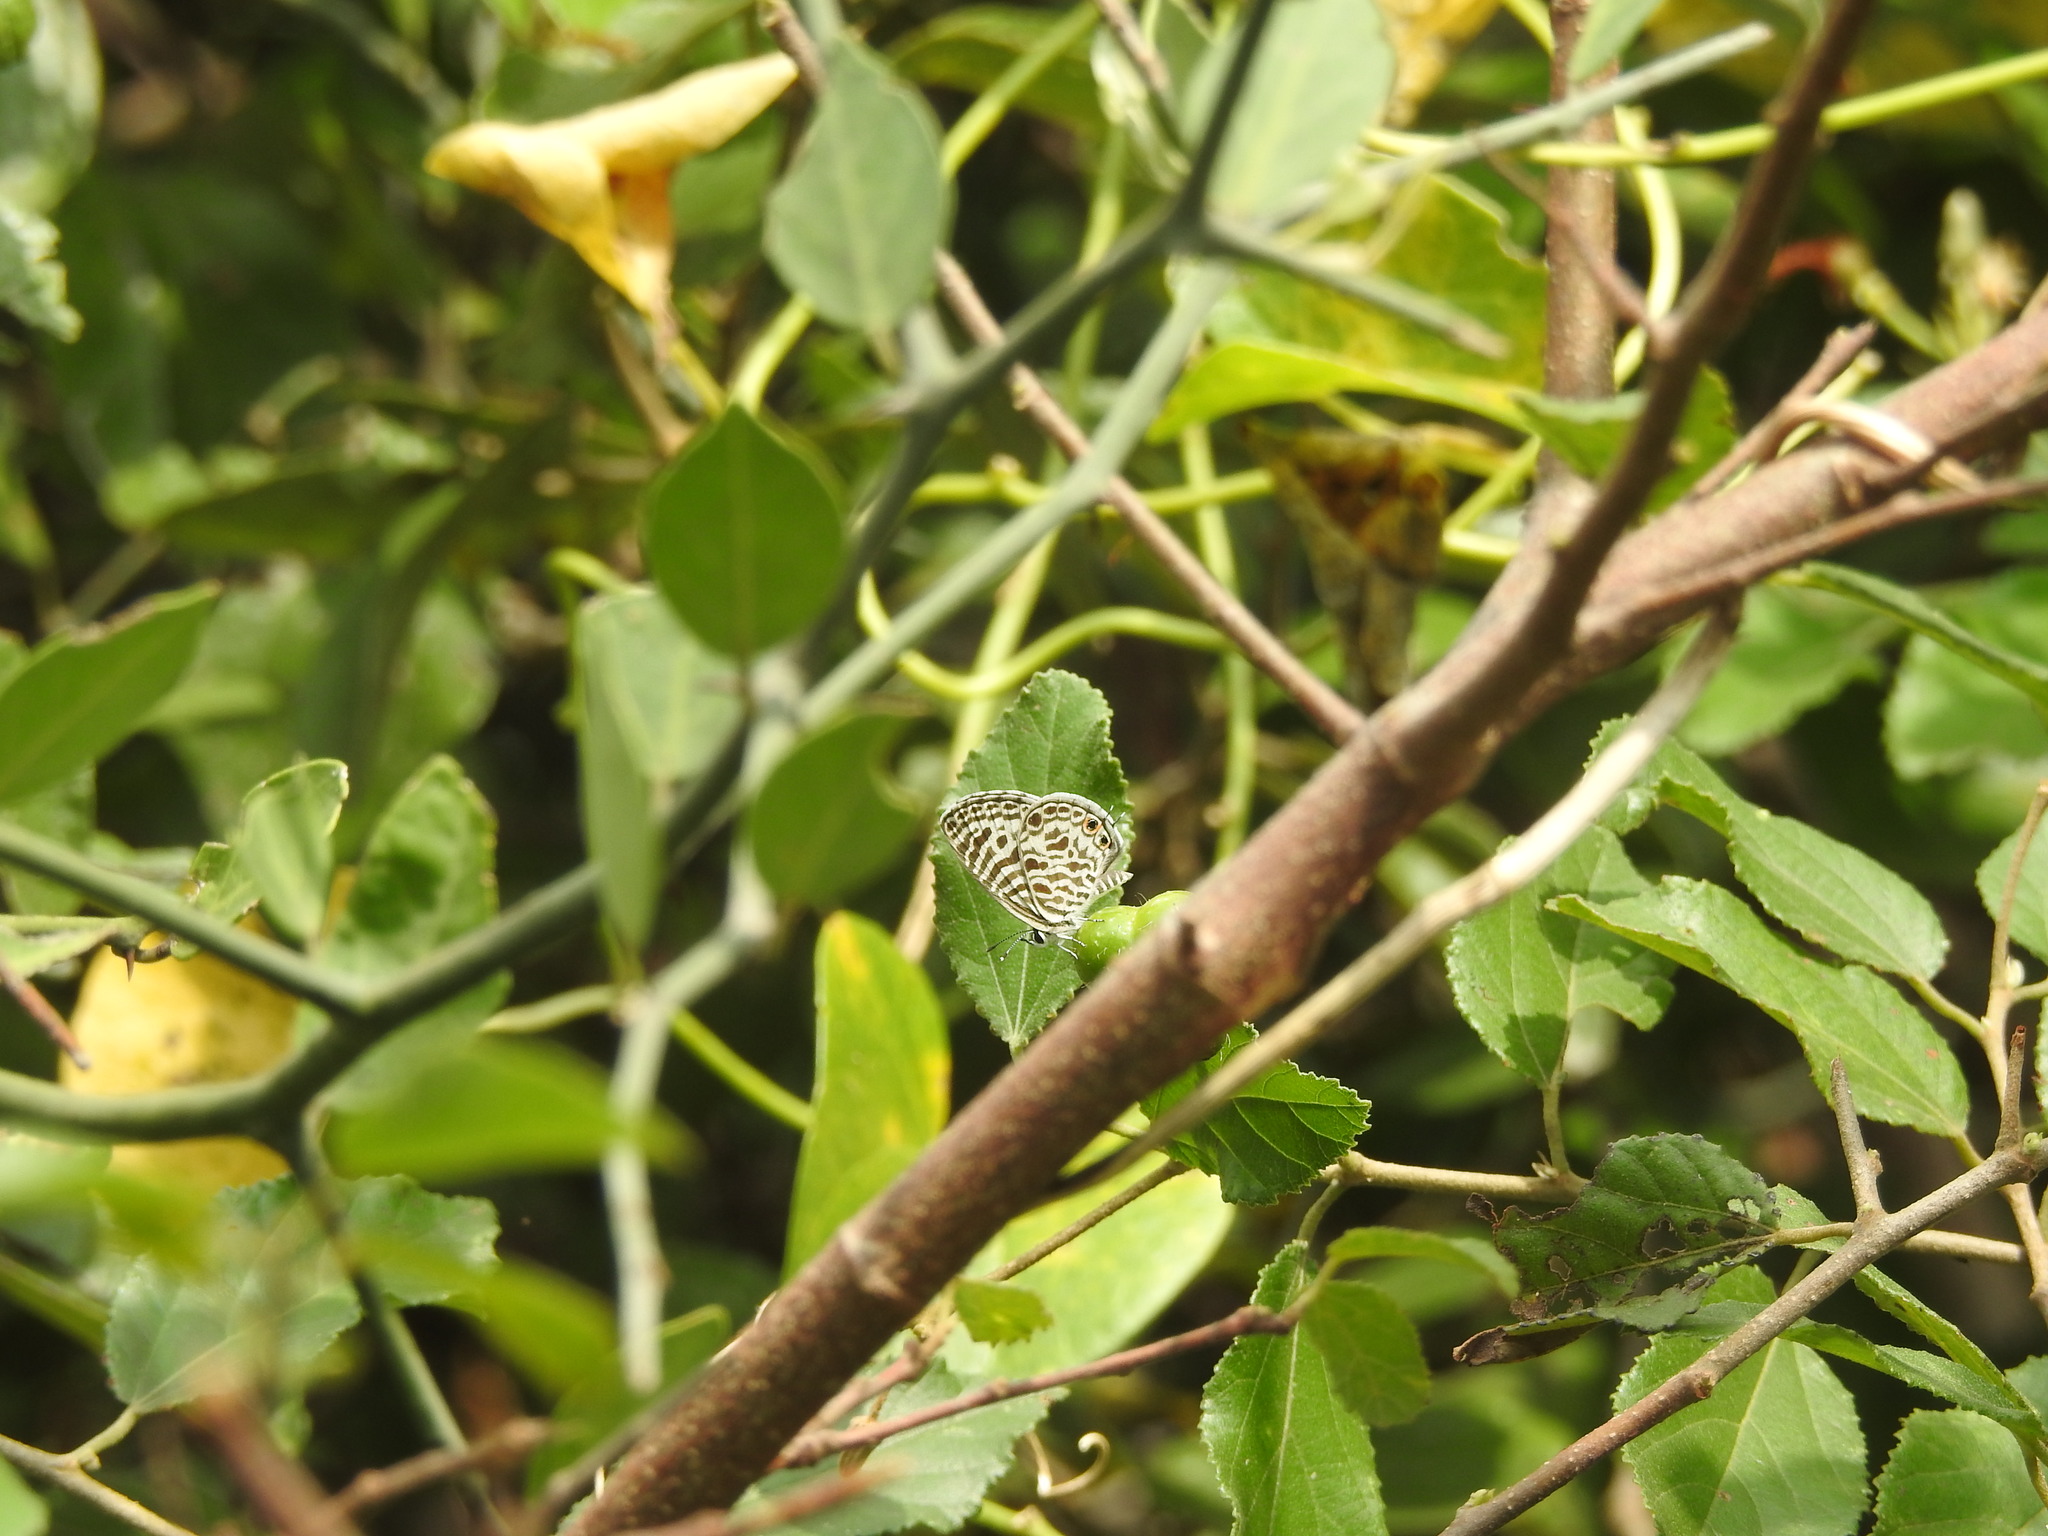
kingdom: Animalia
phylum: Arthropoda
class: Insecta
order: Lepidoptera
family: Lycaenidae
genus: Leptotes
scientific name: Leptotes plinius
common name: Zebra blue
